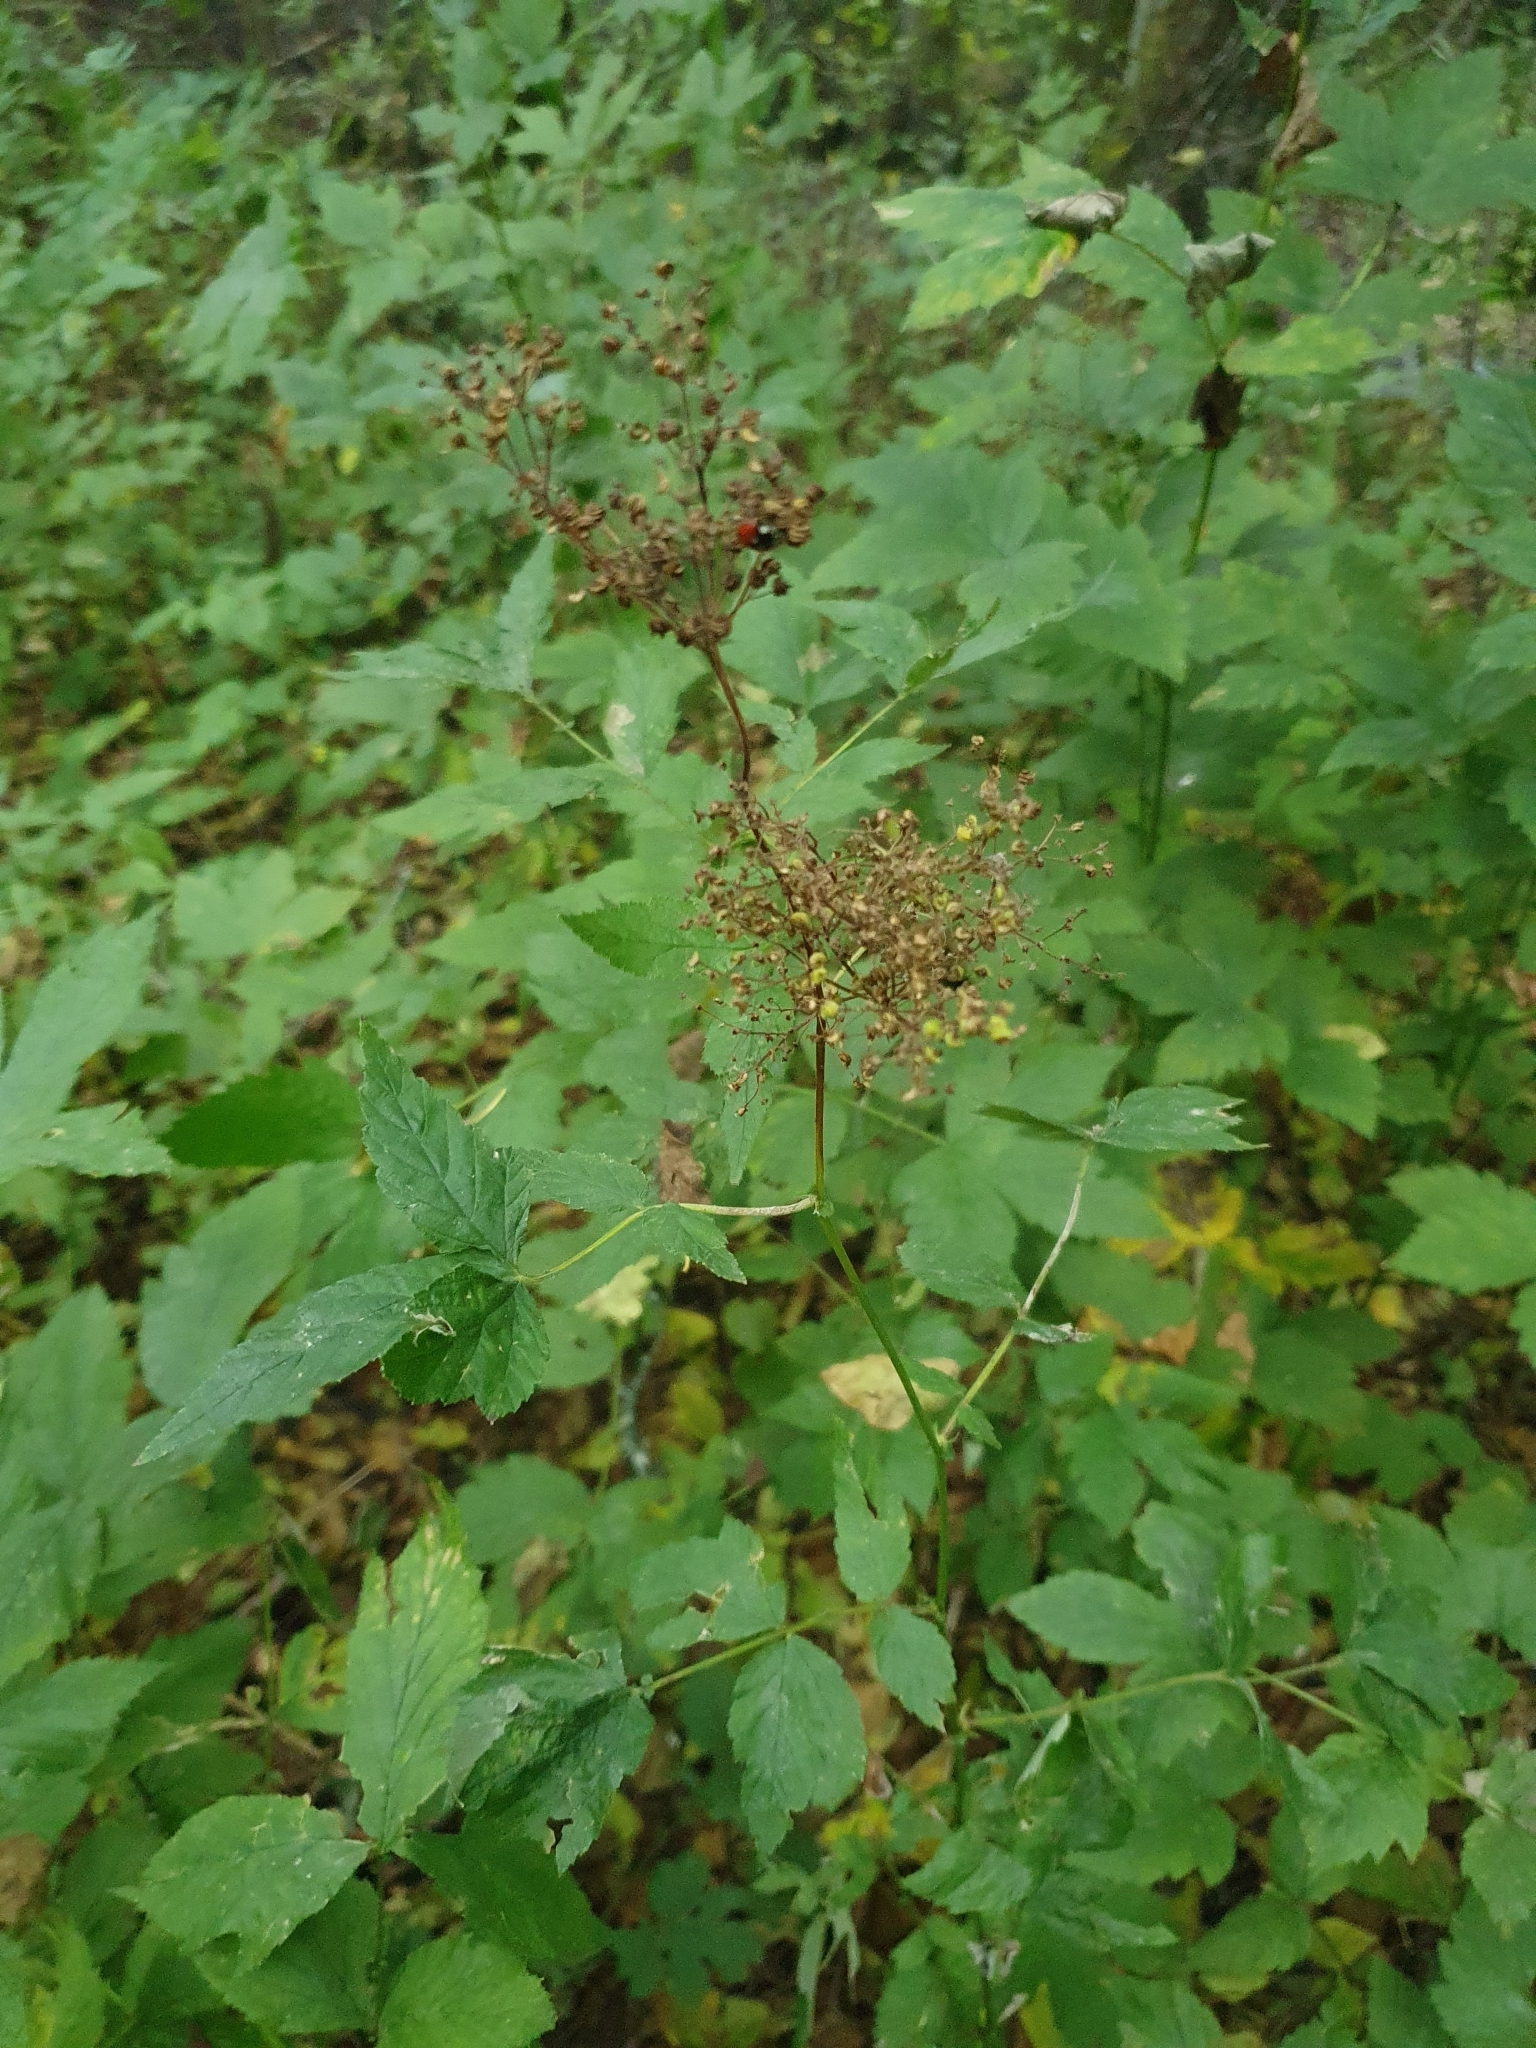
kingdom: Plantae
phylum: Tracheophyta
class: Magnoliopsida
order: Rosales
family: Rosaceae
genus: Filipendula
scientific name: Filipendula ulmaria
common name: Meadowsweet
